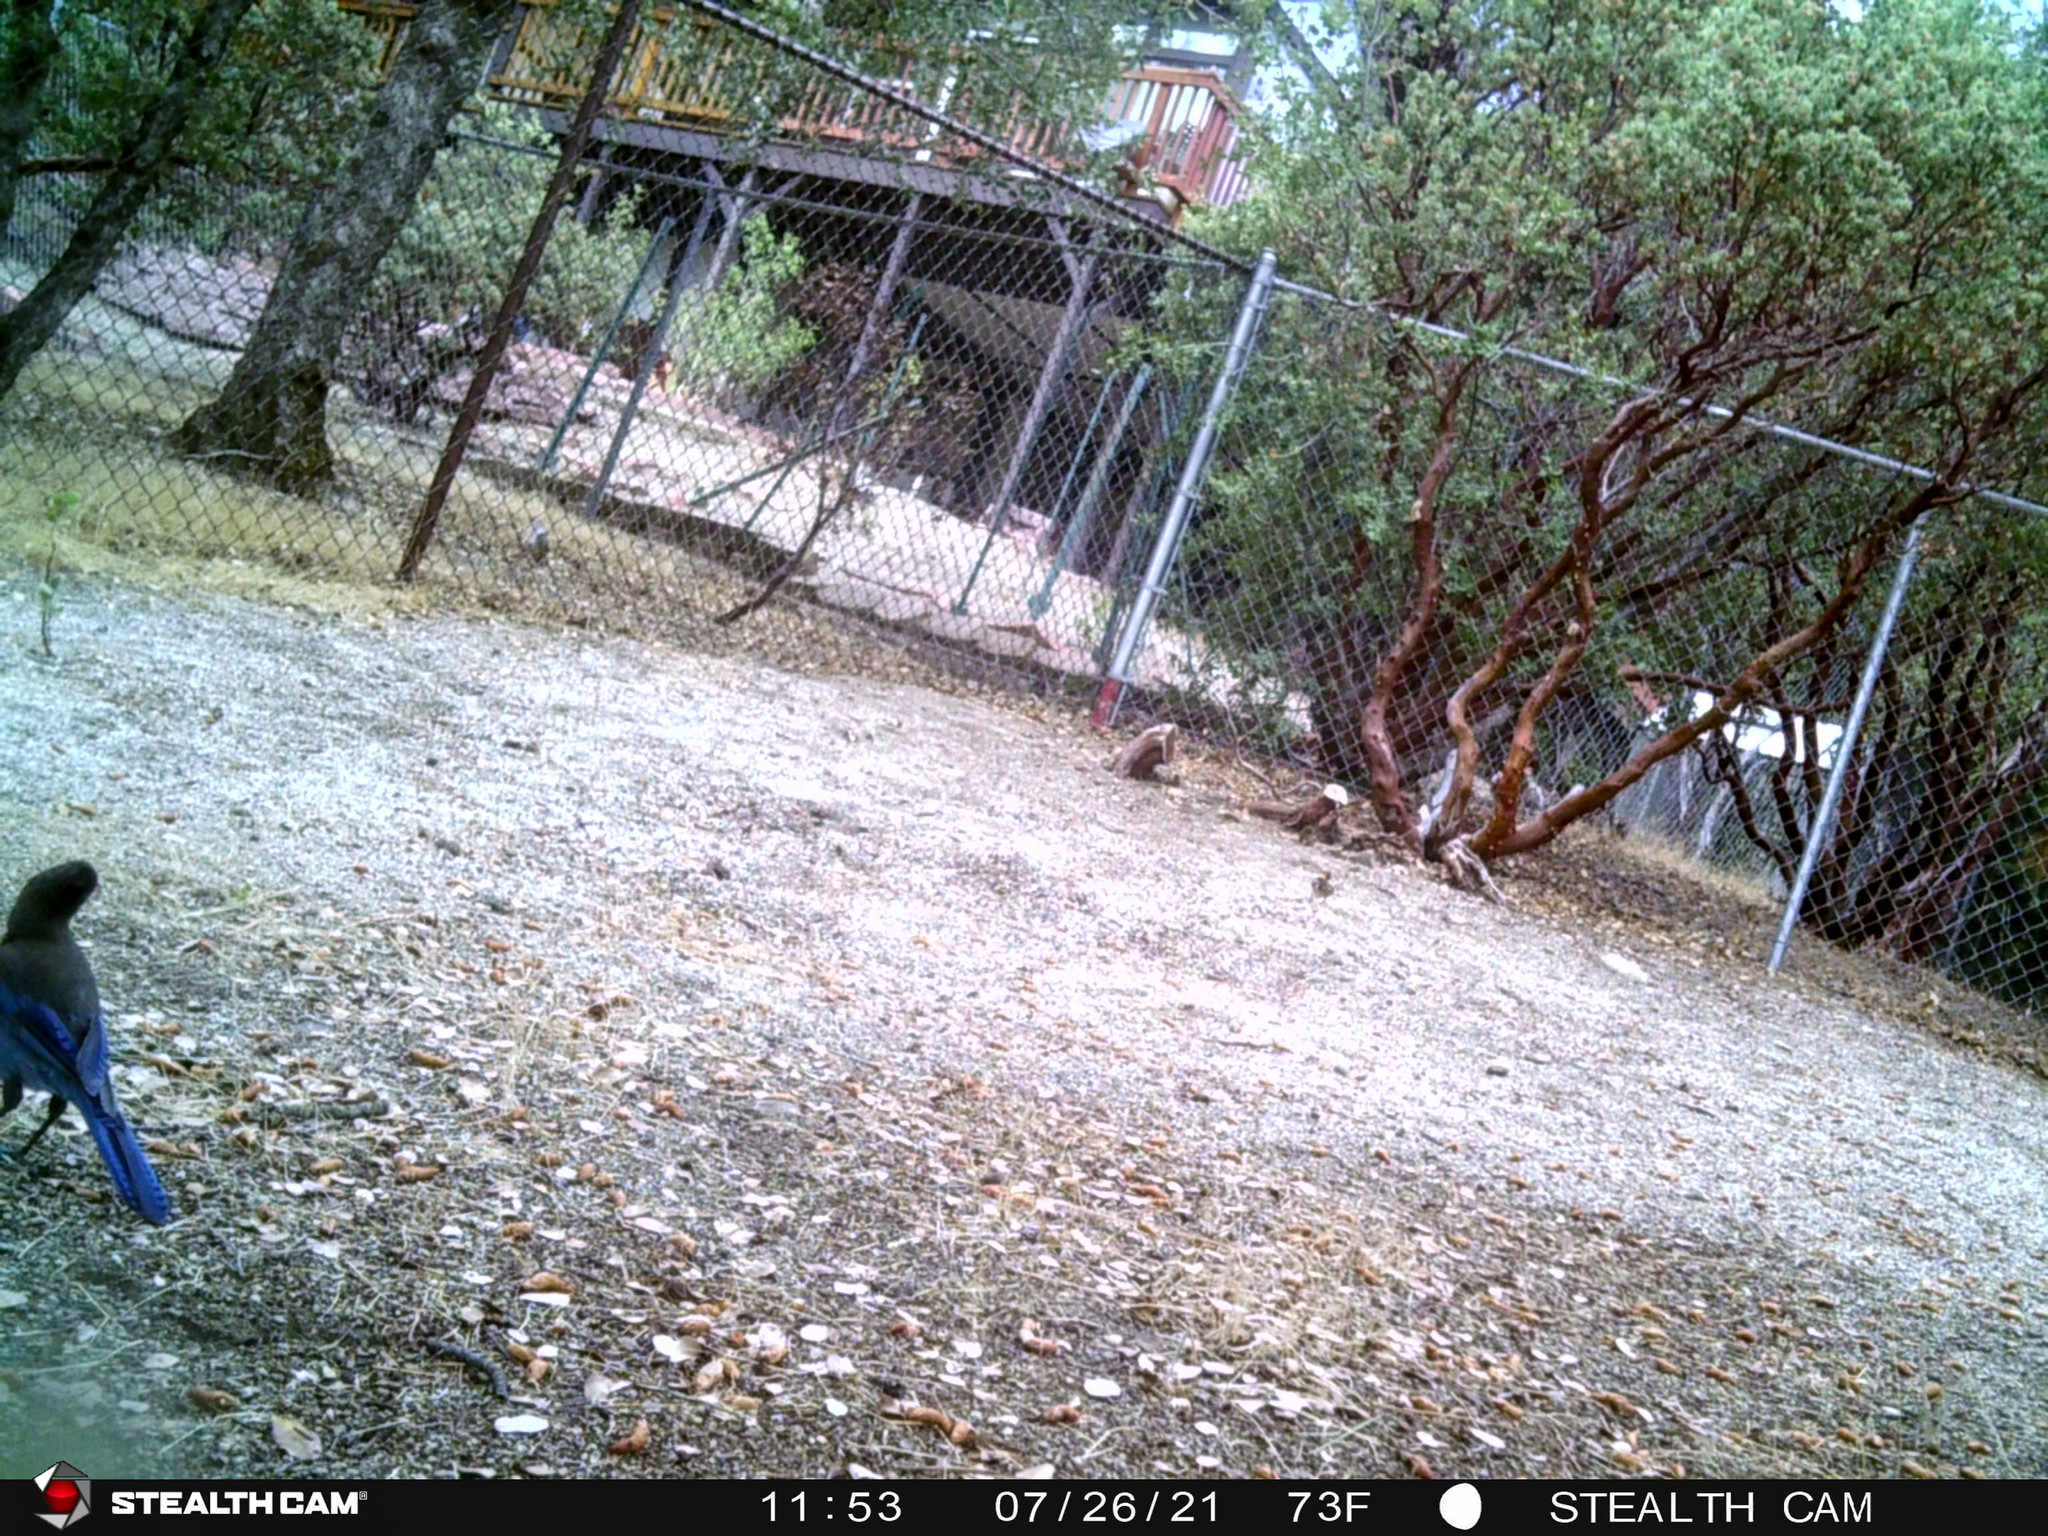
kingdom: Animalia
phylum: Chordata
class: Aves
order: Passeriformes
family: Corvidae
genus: Cyanocitta
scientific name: Cyanocitta stelleri
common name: Steller's jay
